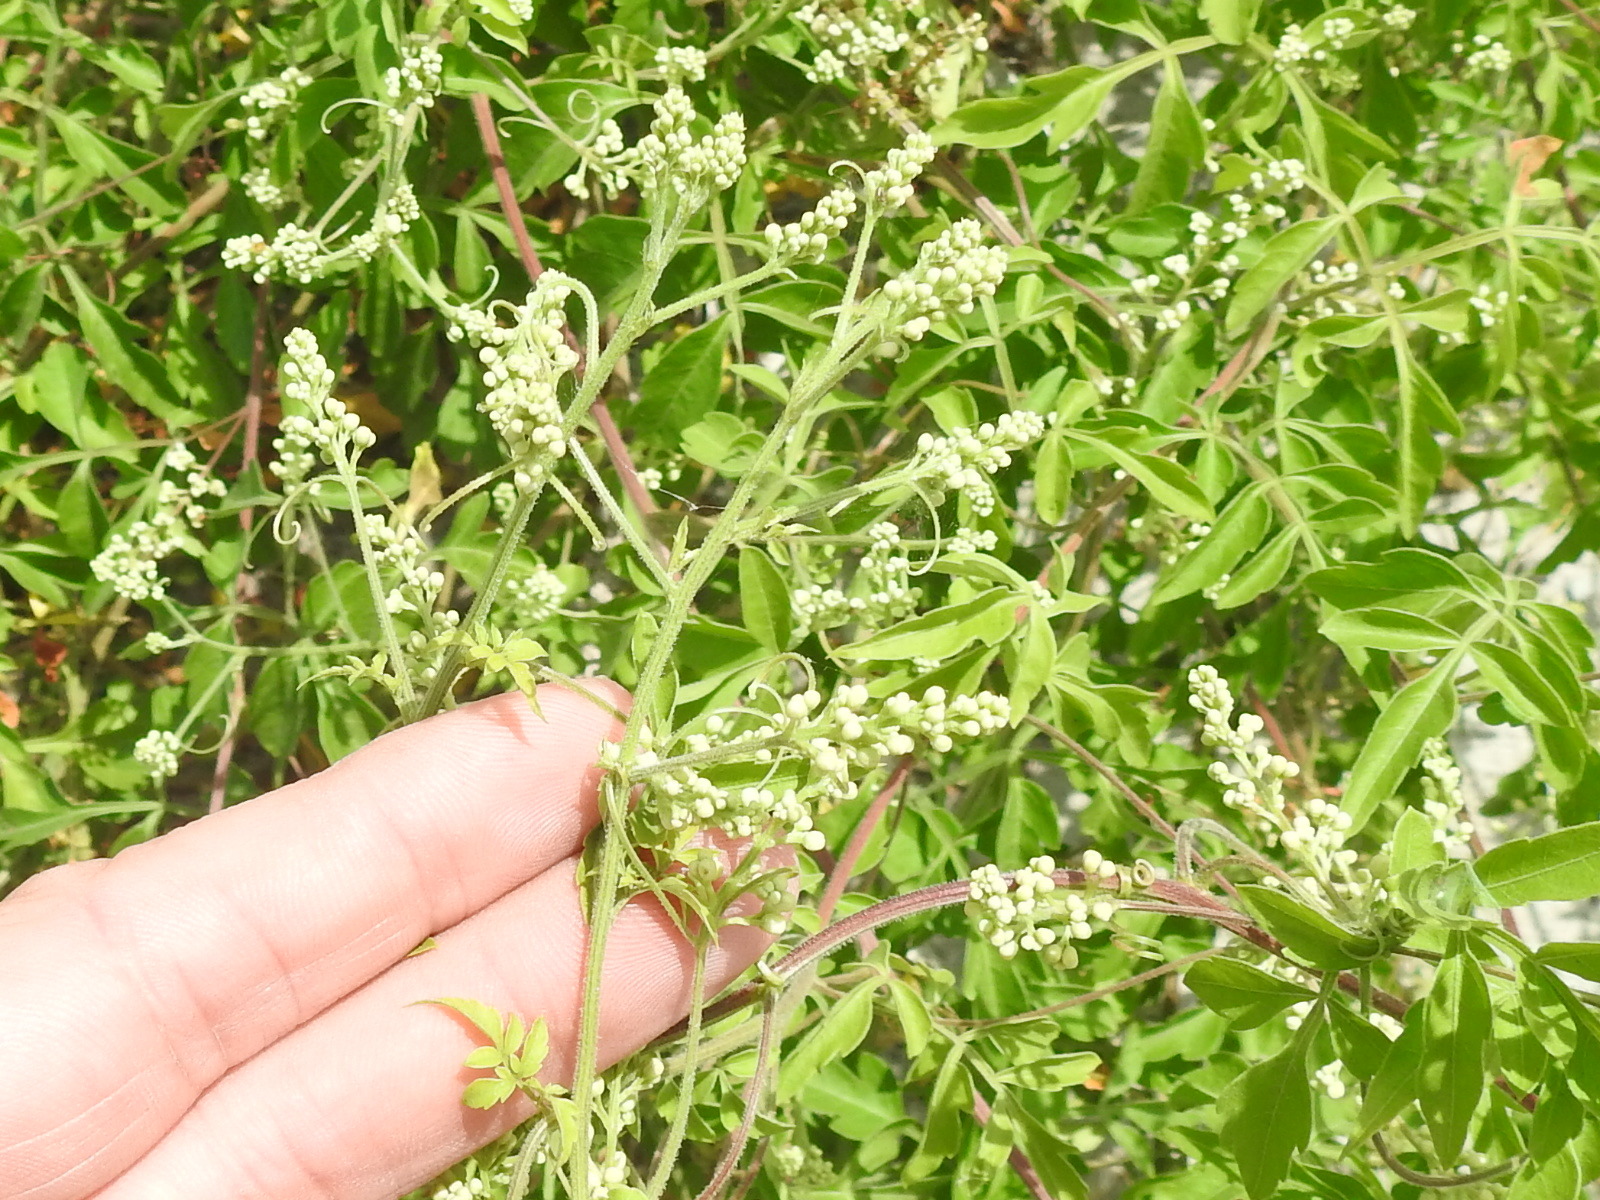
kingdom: Plantae
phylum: Tracheophyta
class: Magnoliopsida
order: Sapindales
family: Sapindaceae
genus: Serjania
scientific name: Serjania brachycarpa
